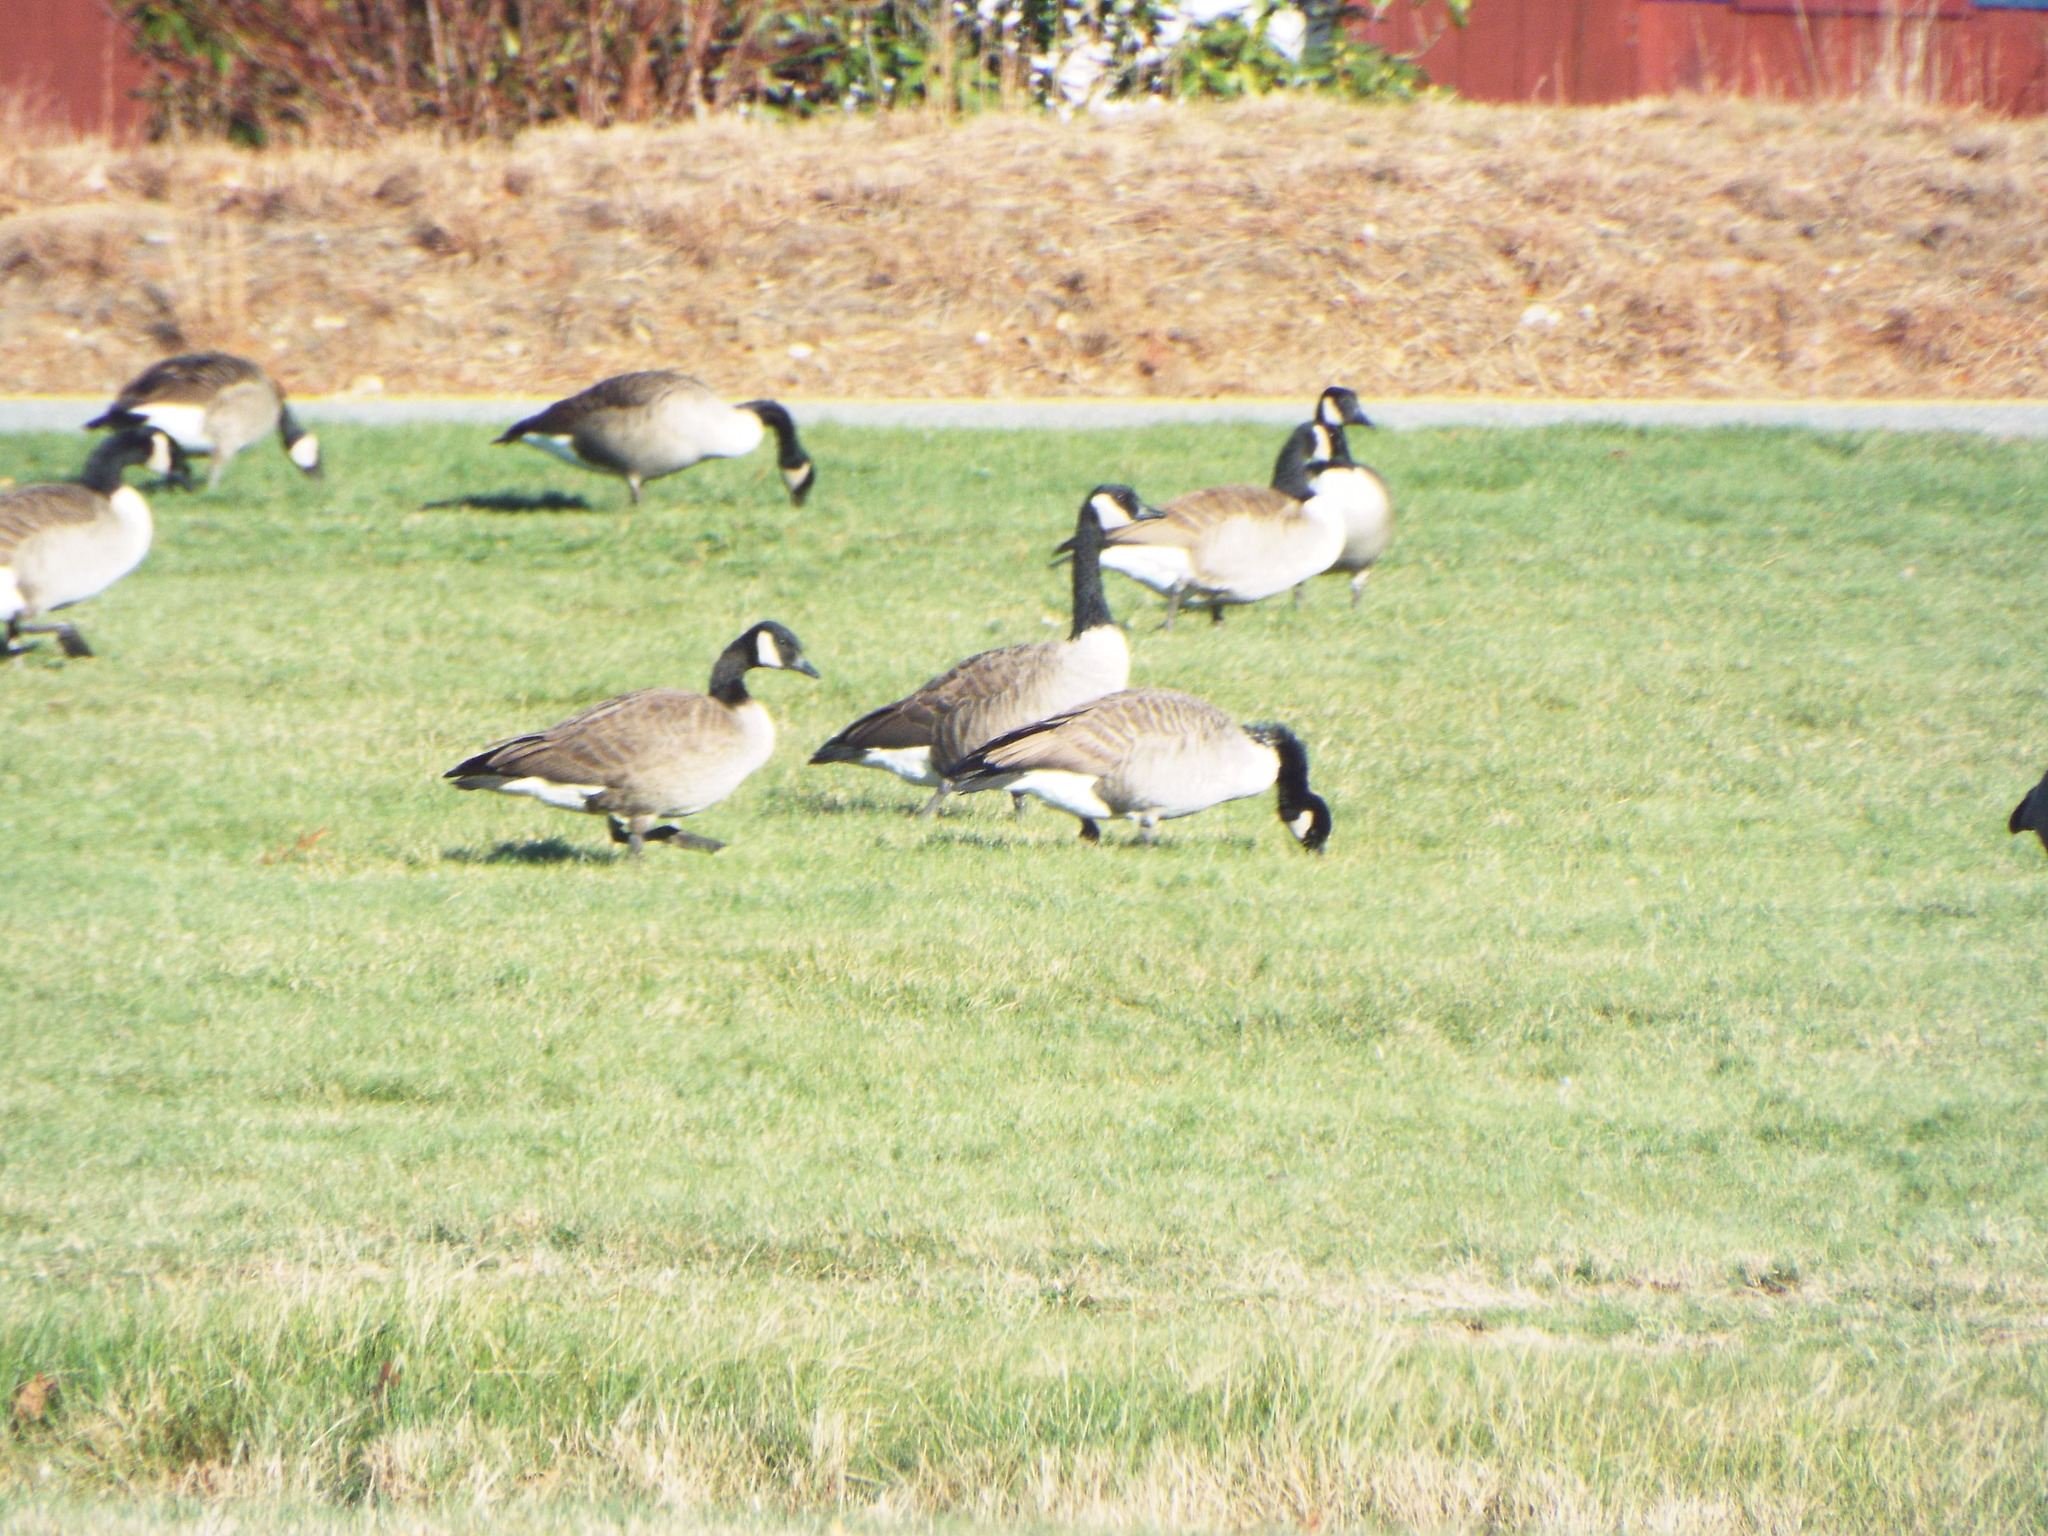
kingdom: Animalia
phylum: Chordata
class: Aves
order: Anseriformes
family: Anatidae
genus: Branta
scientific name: Branta canadensis
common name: Canada goose
